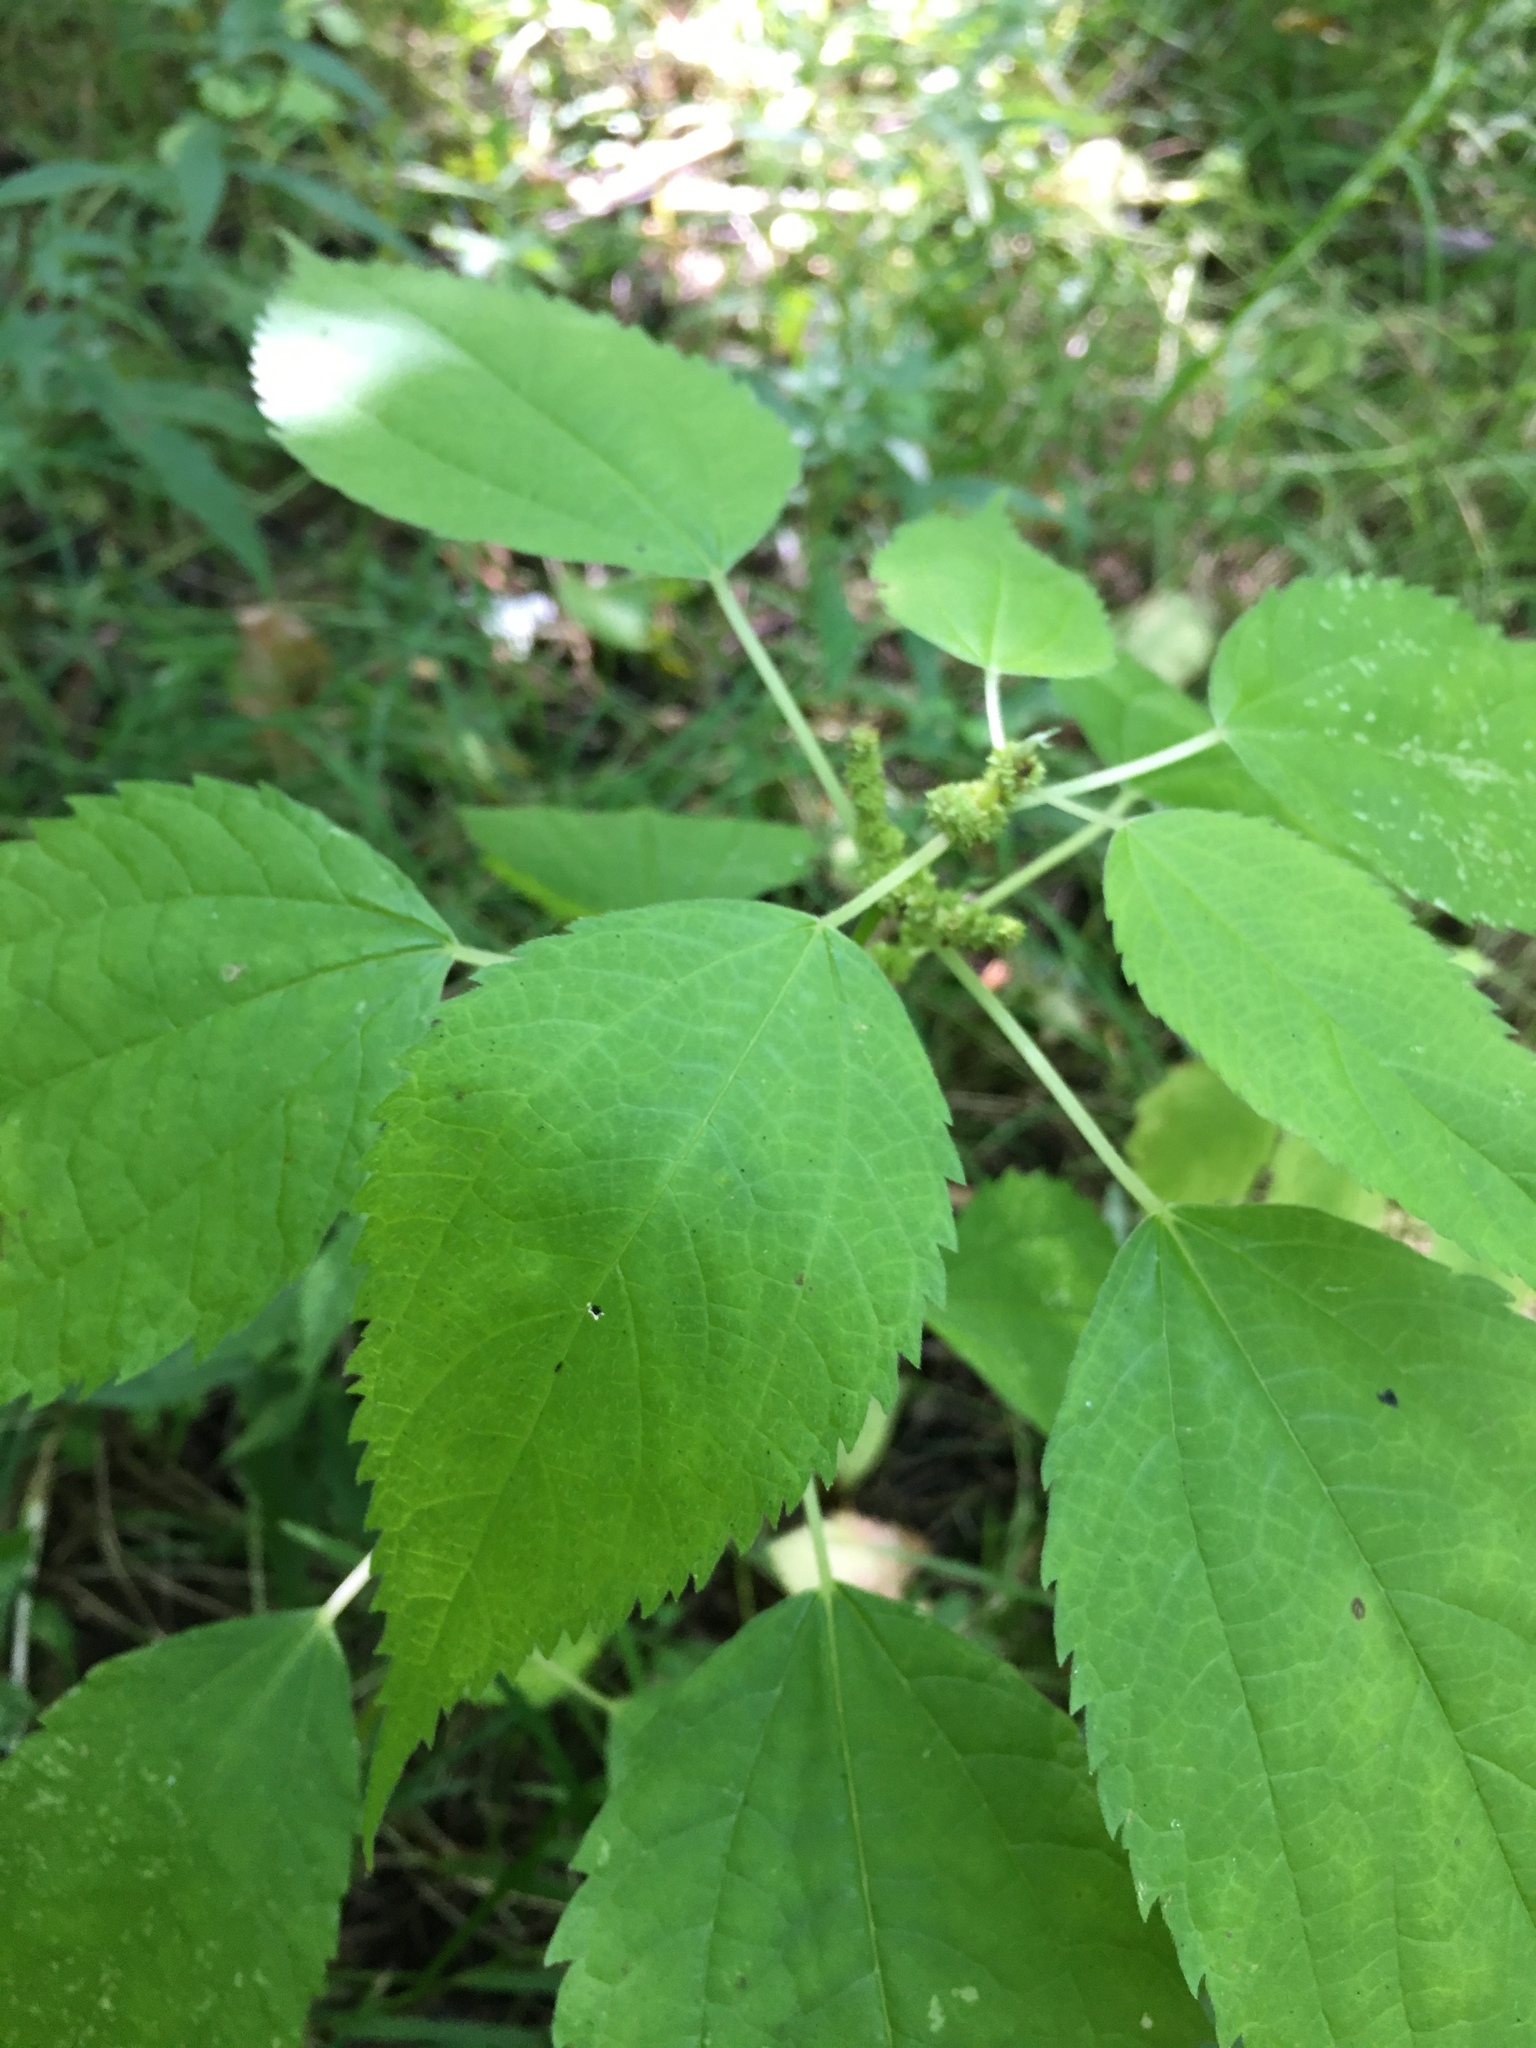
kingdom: Plantae
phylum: Tracheophyta
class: Magnoliopsida
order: Rosales
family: Urticaceae
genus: Boehmeria
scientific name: Boehmeria cylindrica
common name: Bog-hemp
